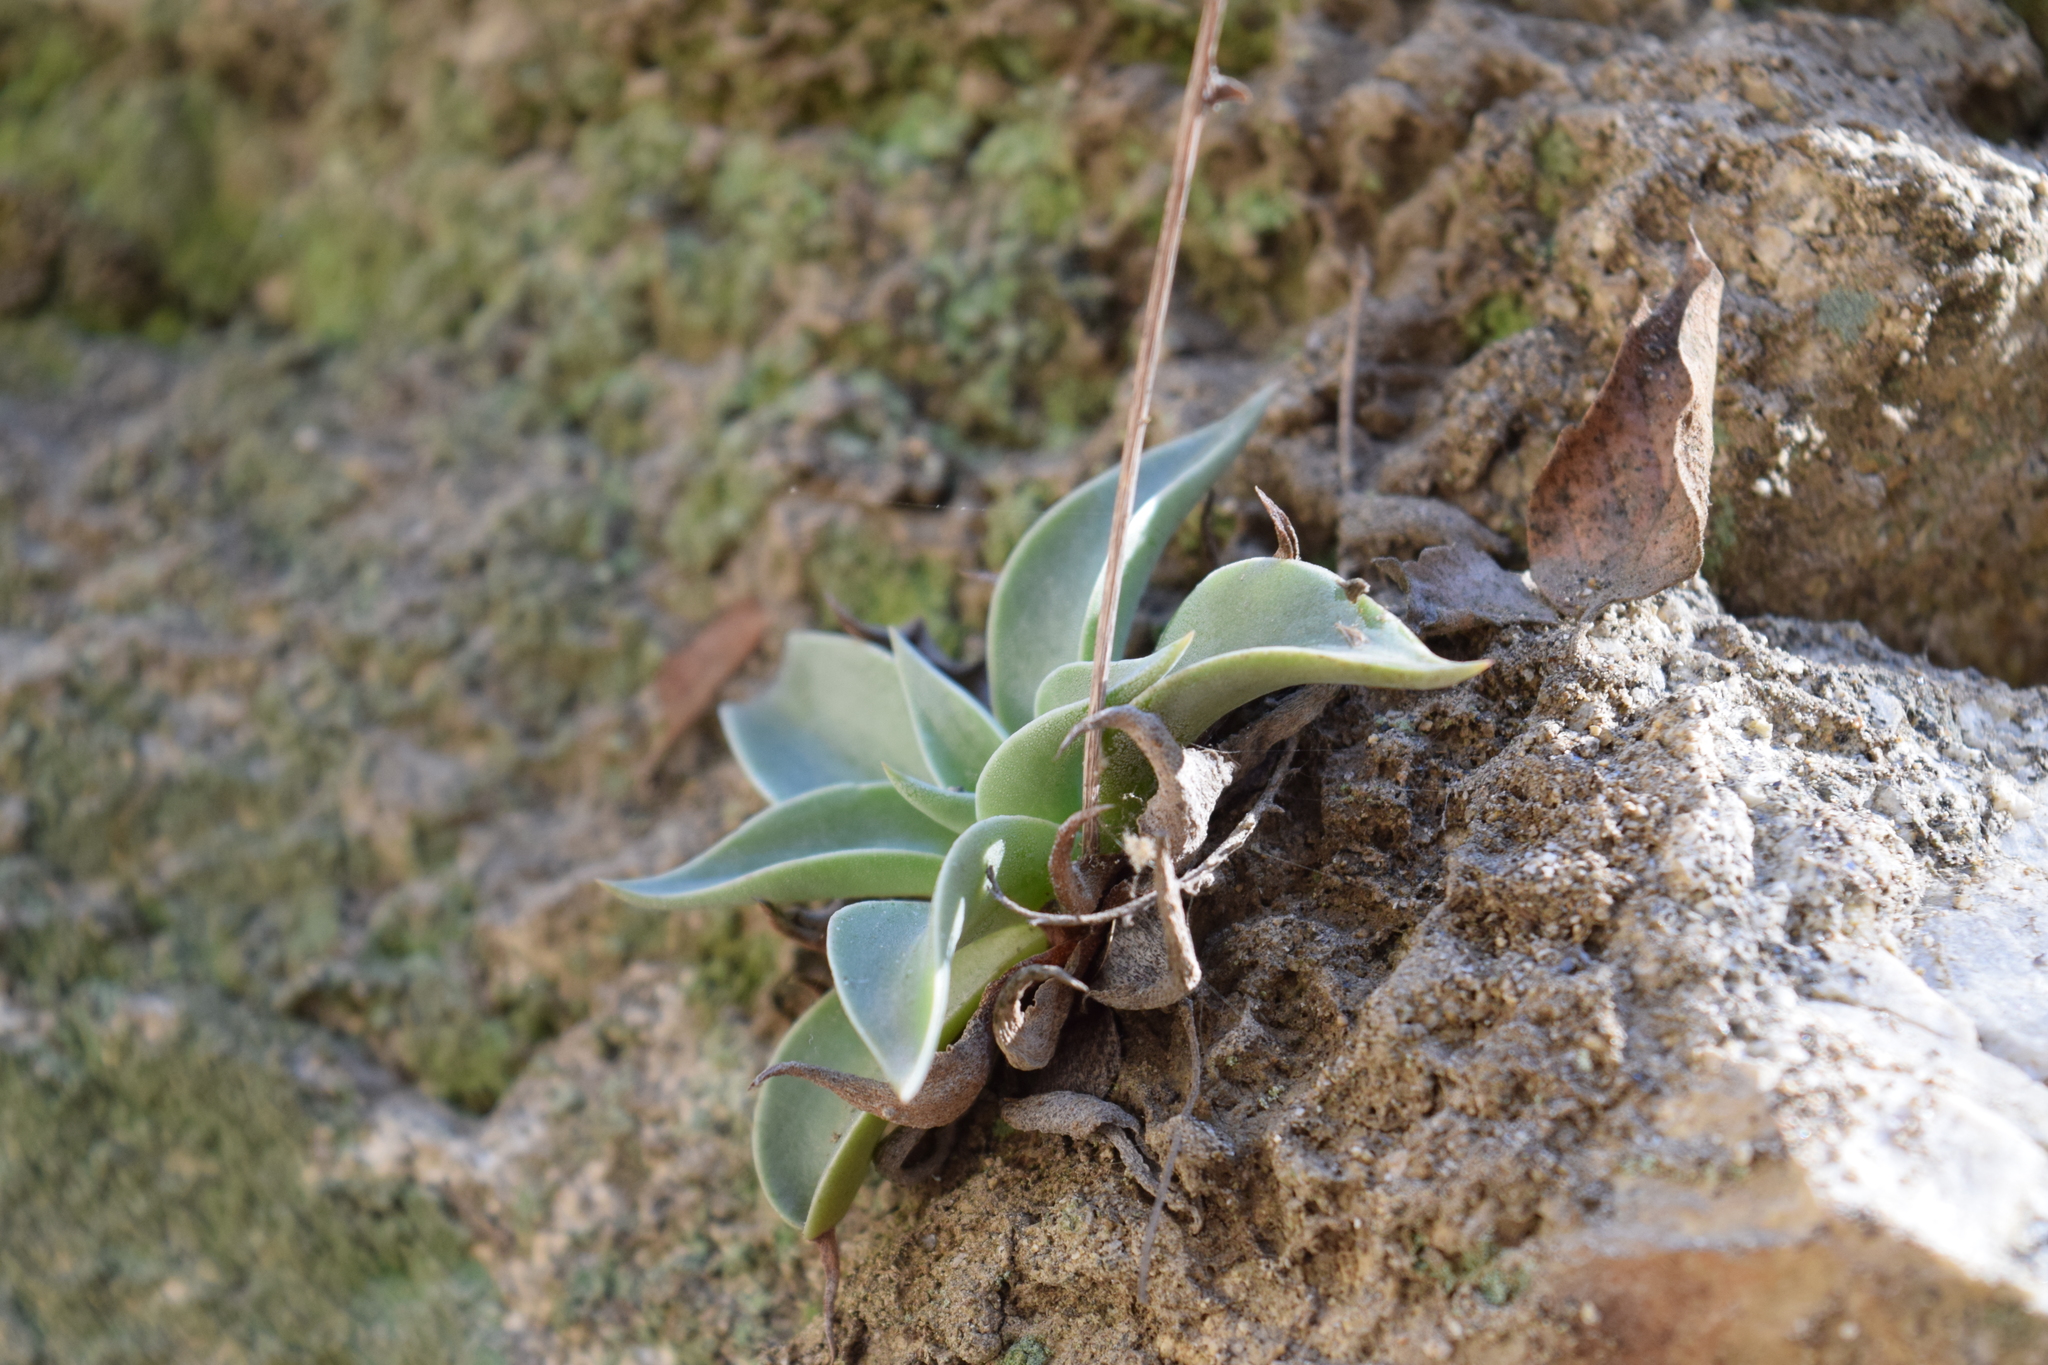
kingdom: Plantae
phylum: Tracheophyta
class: Magnoliopsida
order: Saxifragales
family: Crassulaceae
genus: Dudleya
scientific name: Dudleya lanceolata
